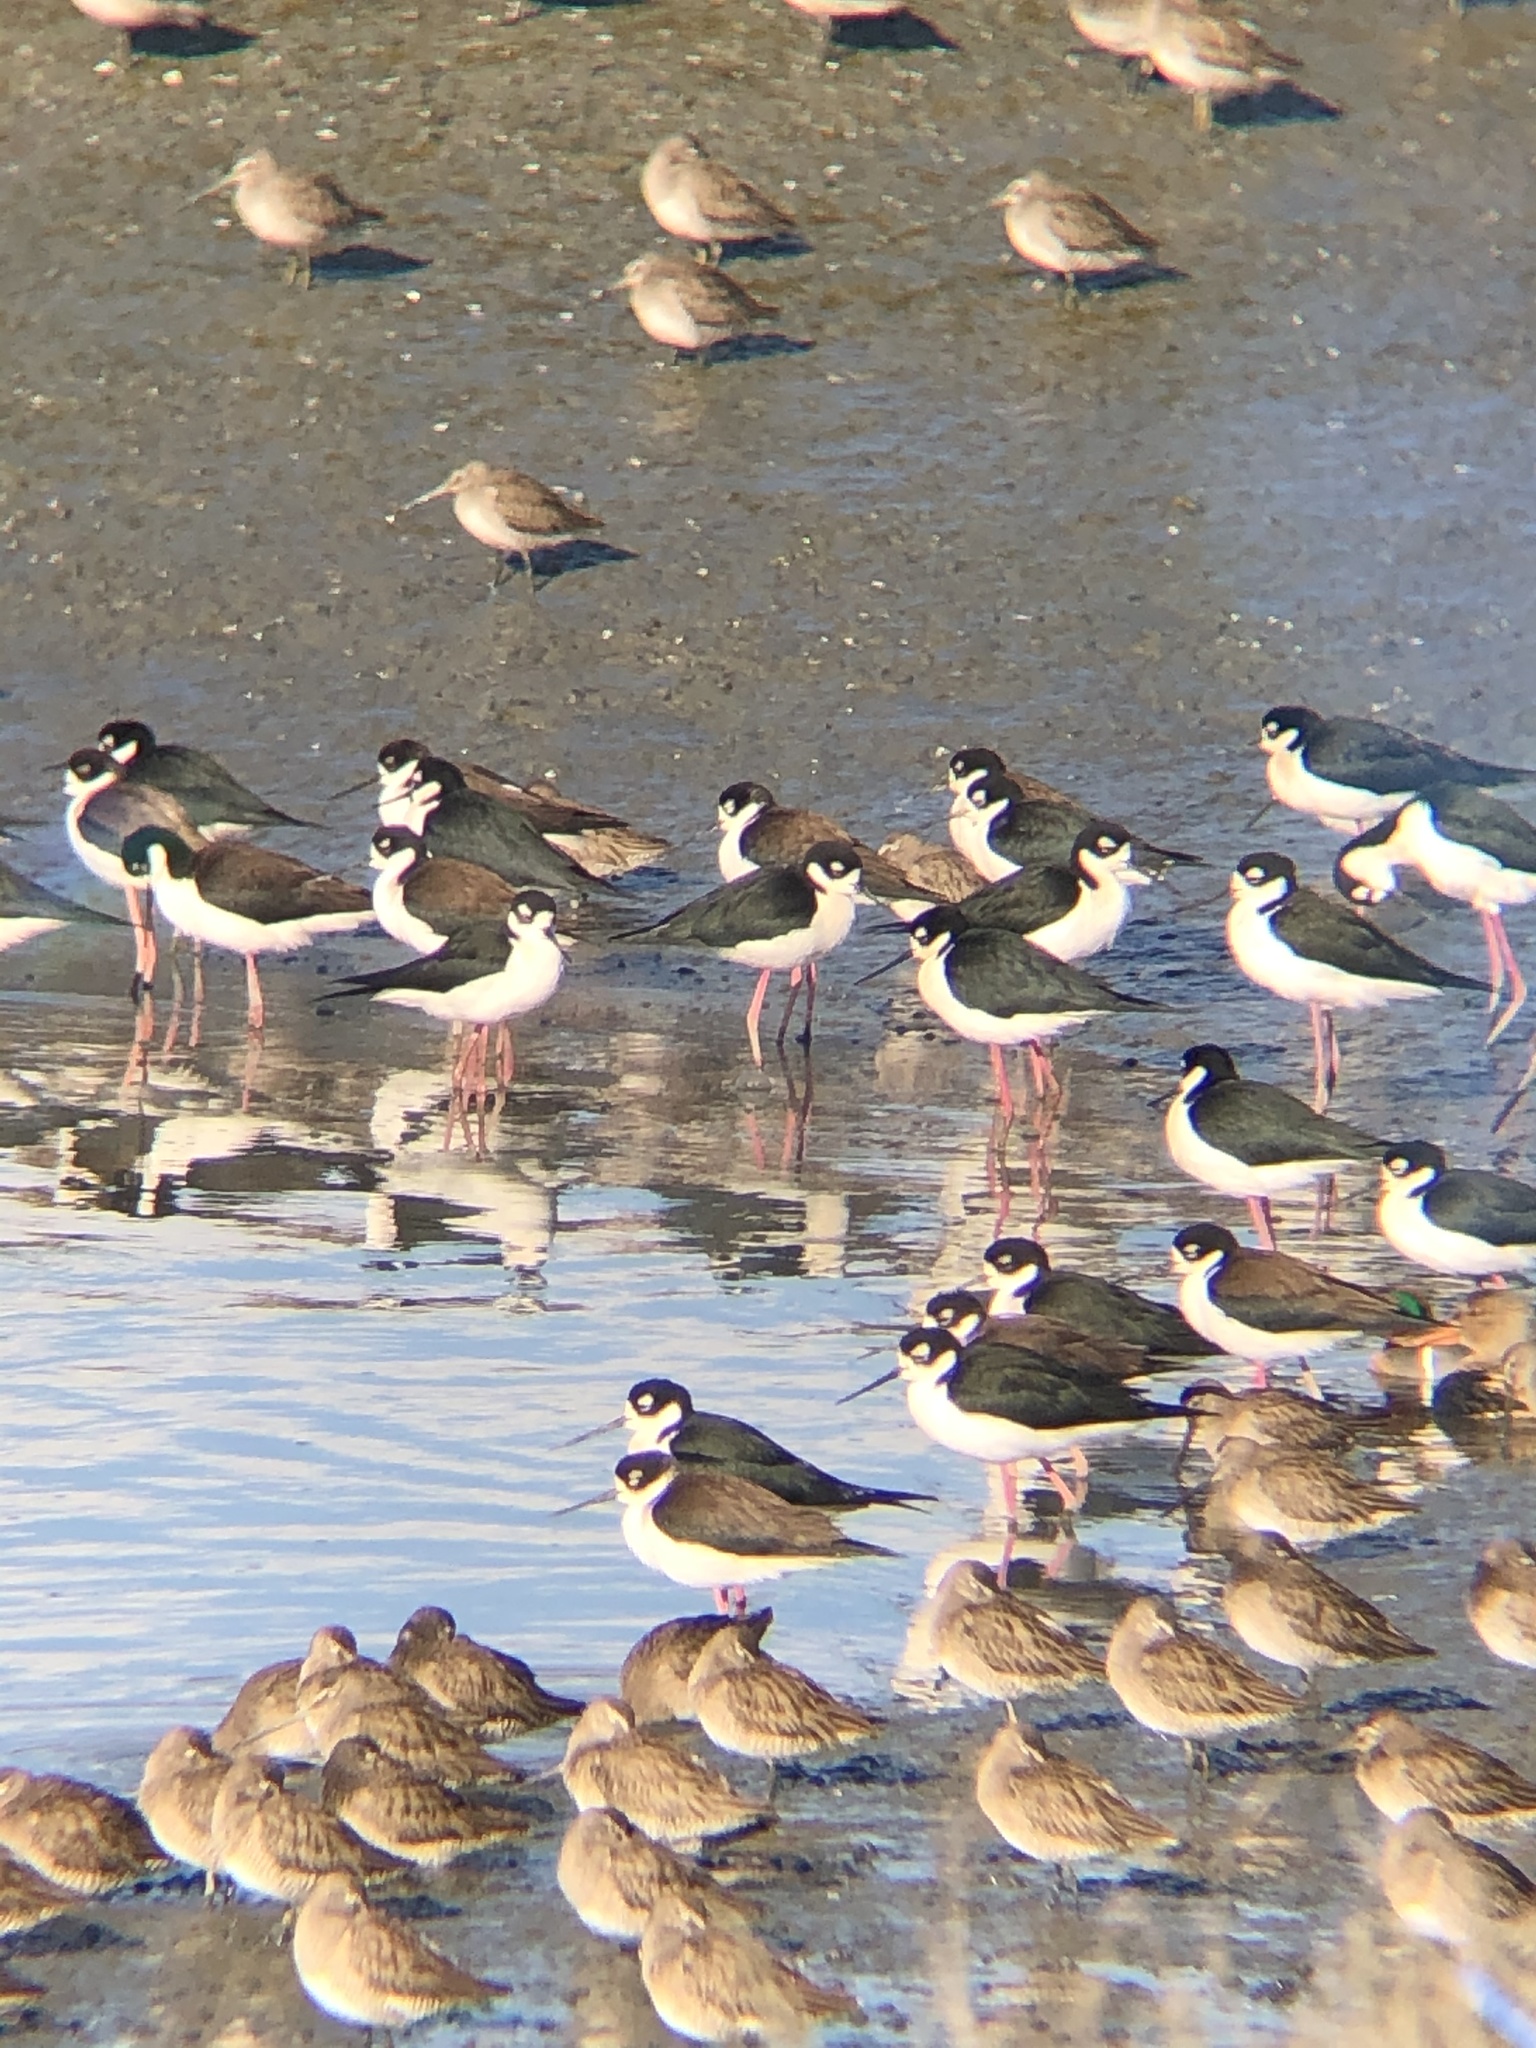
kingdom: Animalia
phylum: Chordata
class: Aves
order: Charadriiformes
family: Recurvirostridae
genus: Himantopus
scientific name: Himantopus mexicanus
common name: Black-necked stilt
